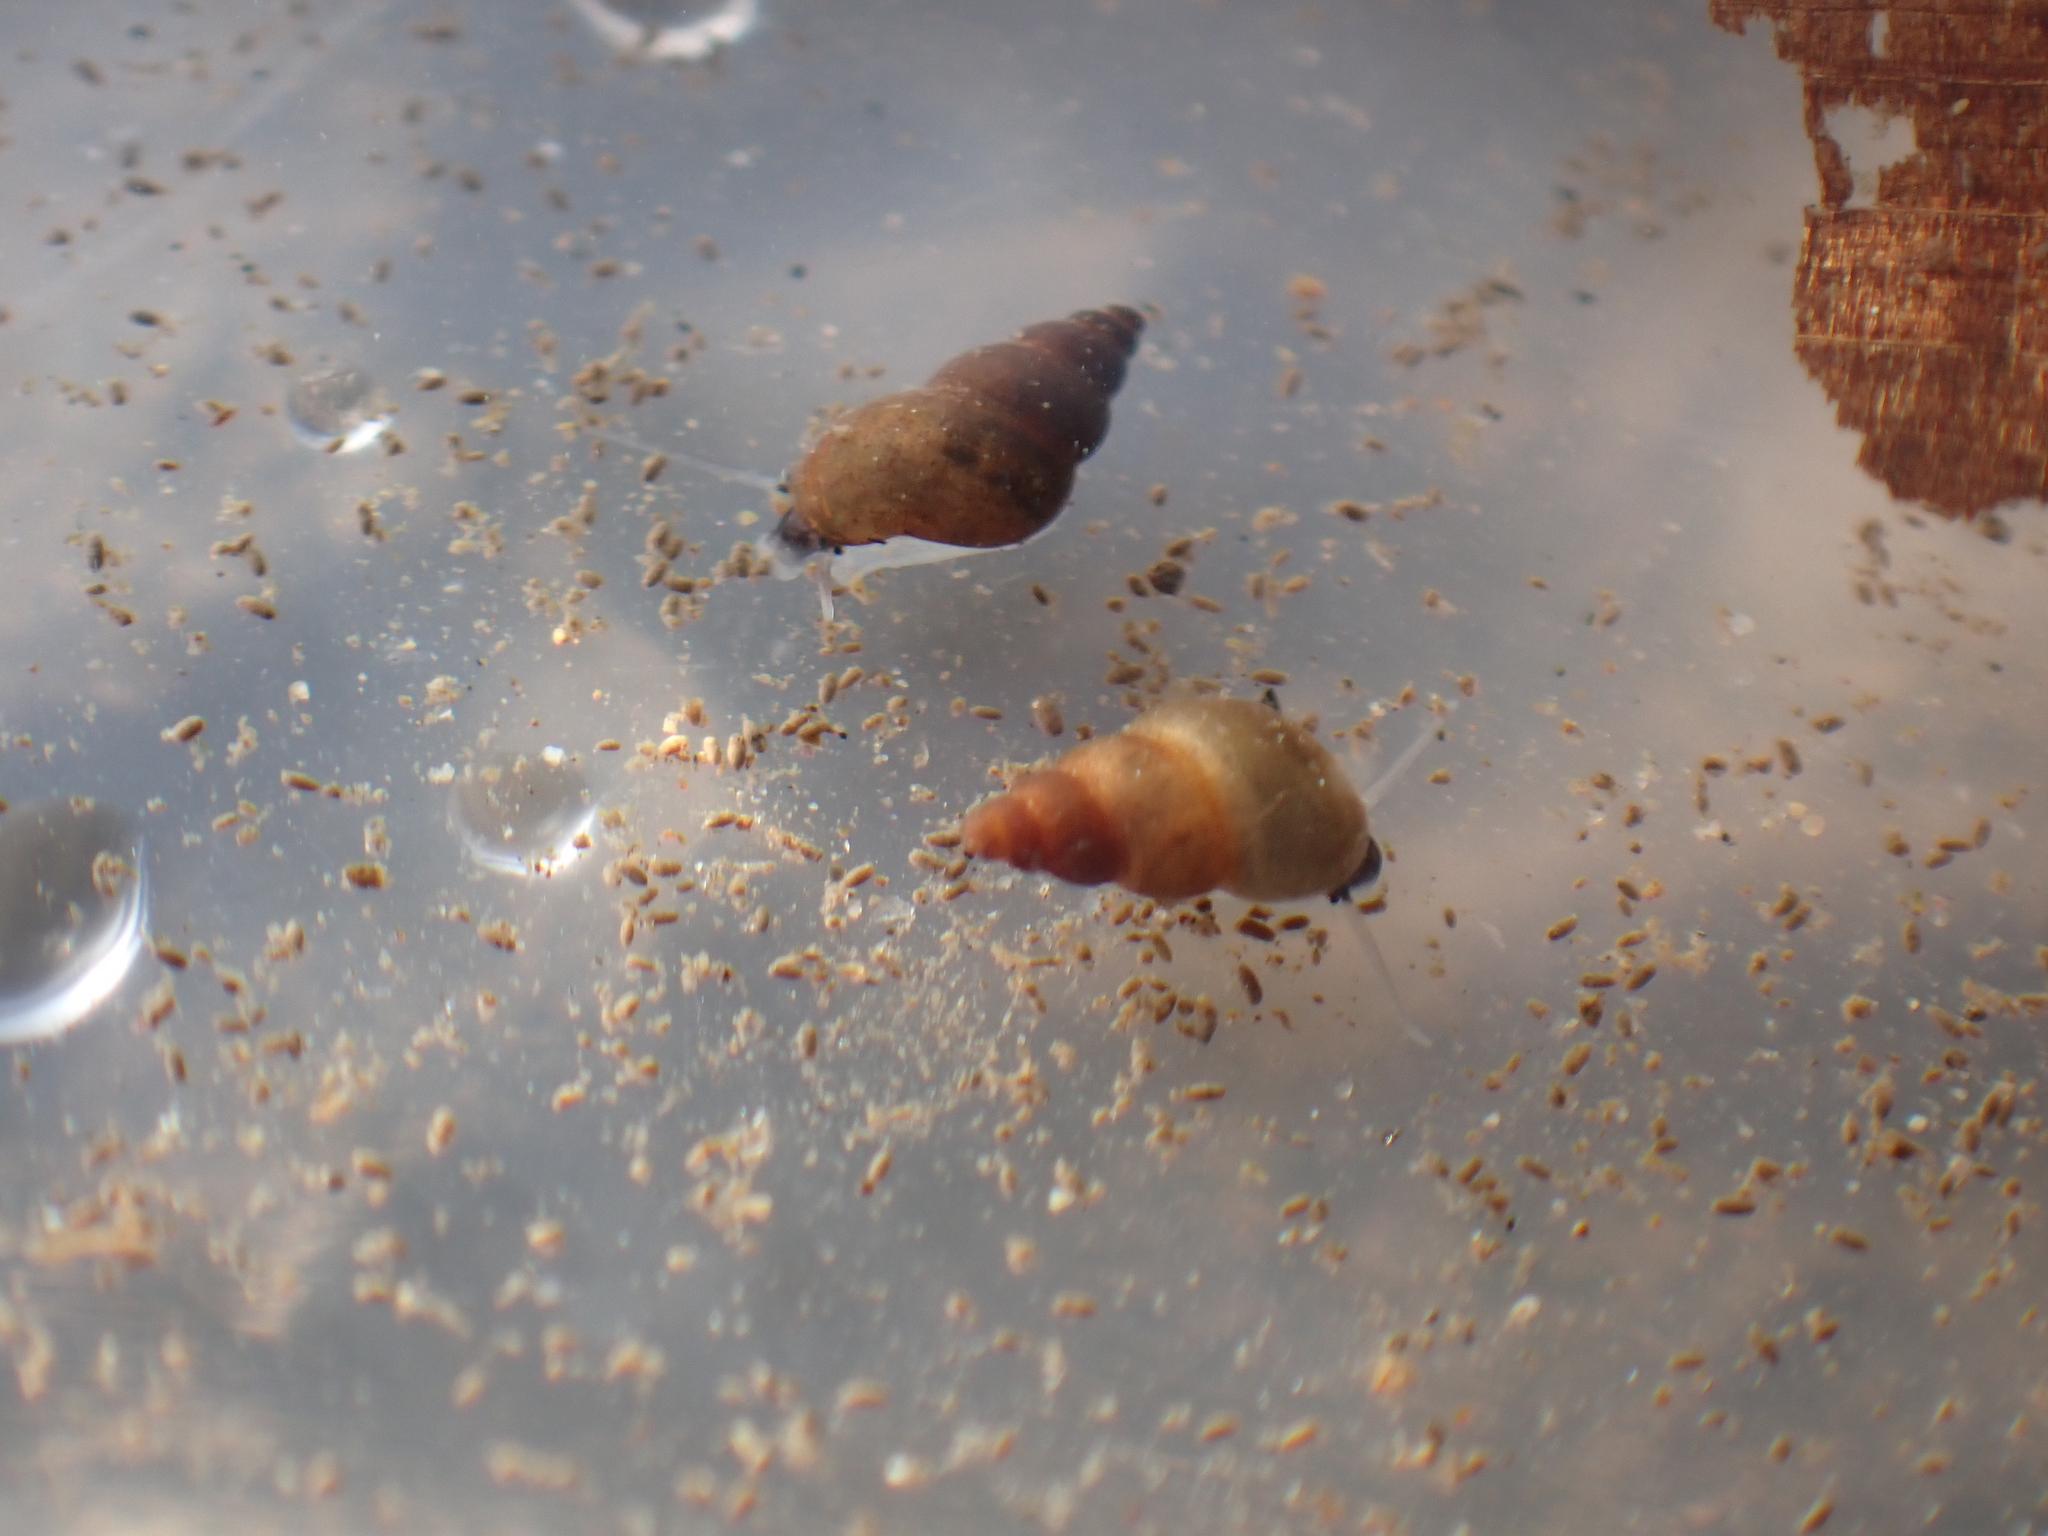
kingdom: Animalia
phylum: Mollusca
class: Gastropoda
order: Littorinimorpha
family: Tateidae
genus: Potamopyrgus
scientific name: Potamopyrgus antipodarum
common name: Jenkins' spire snail
